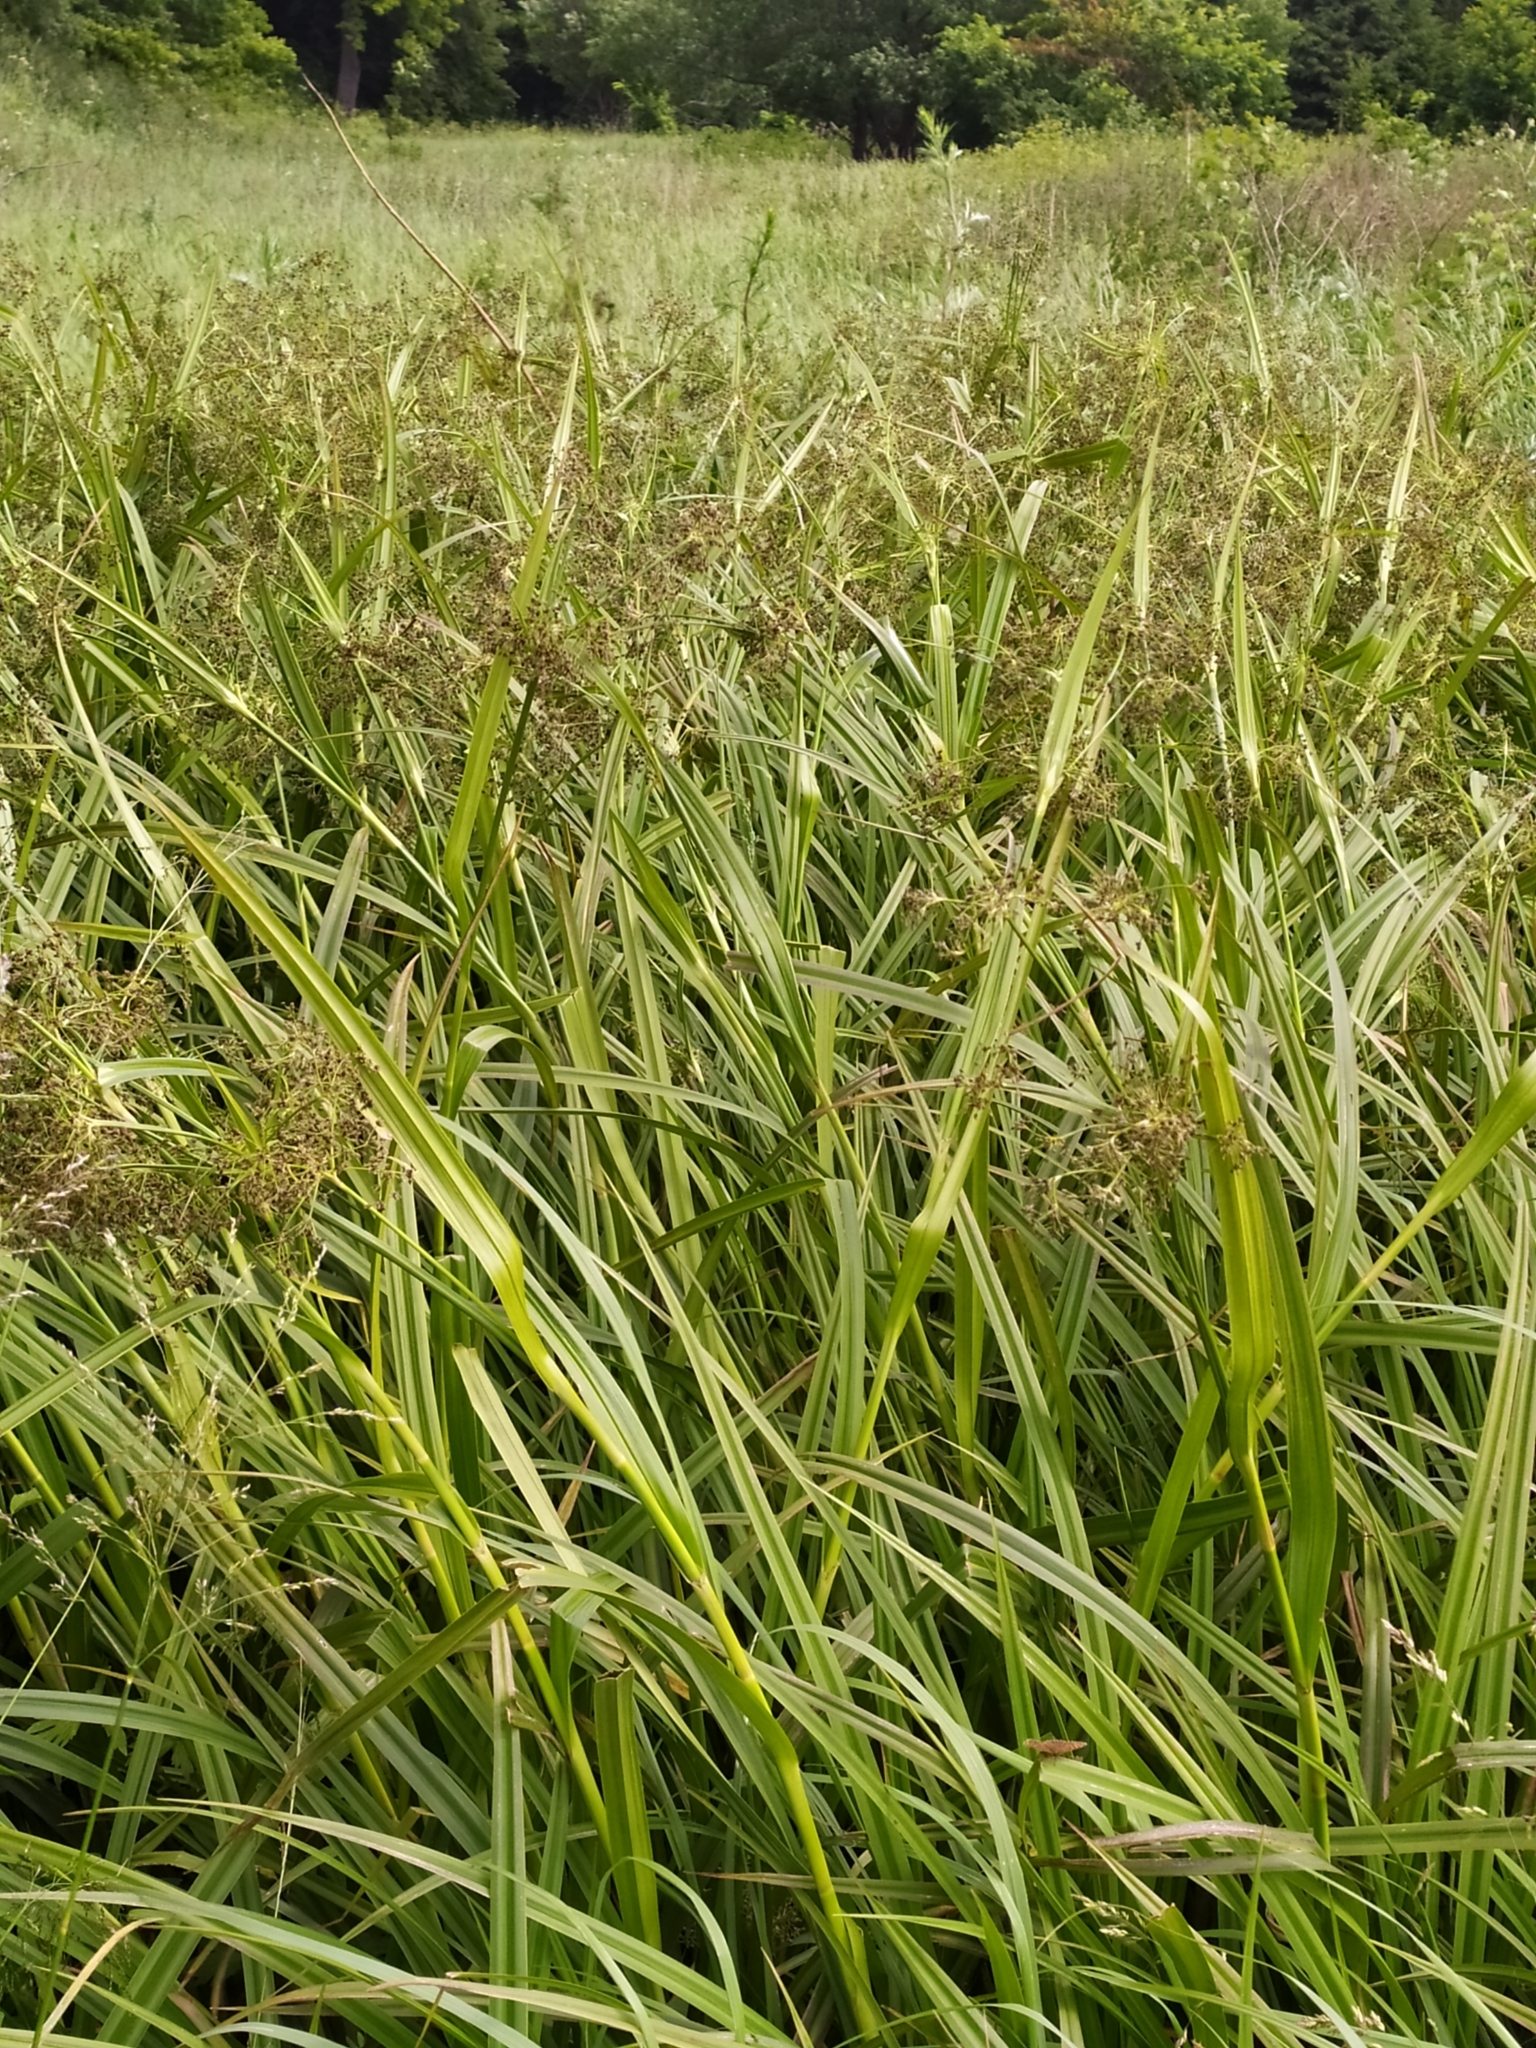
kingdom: Plantae
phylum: Tracheophyta
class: Liliopsida
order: Poales
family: Cyperaceae
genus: Scirpus
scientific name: Scirpus sylvaticus
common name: Wood club-rush
